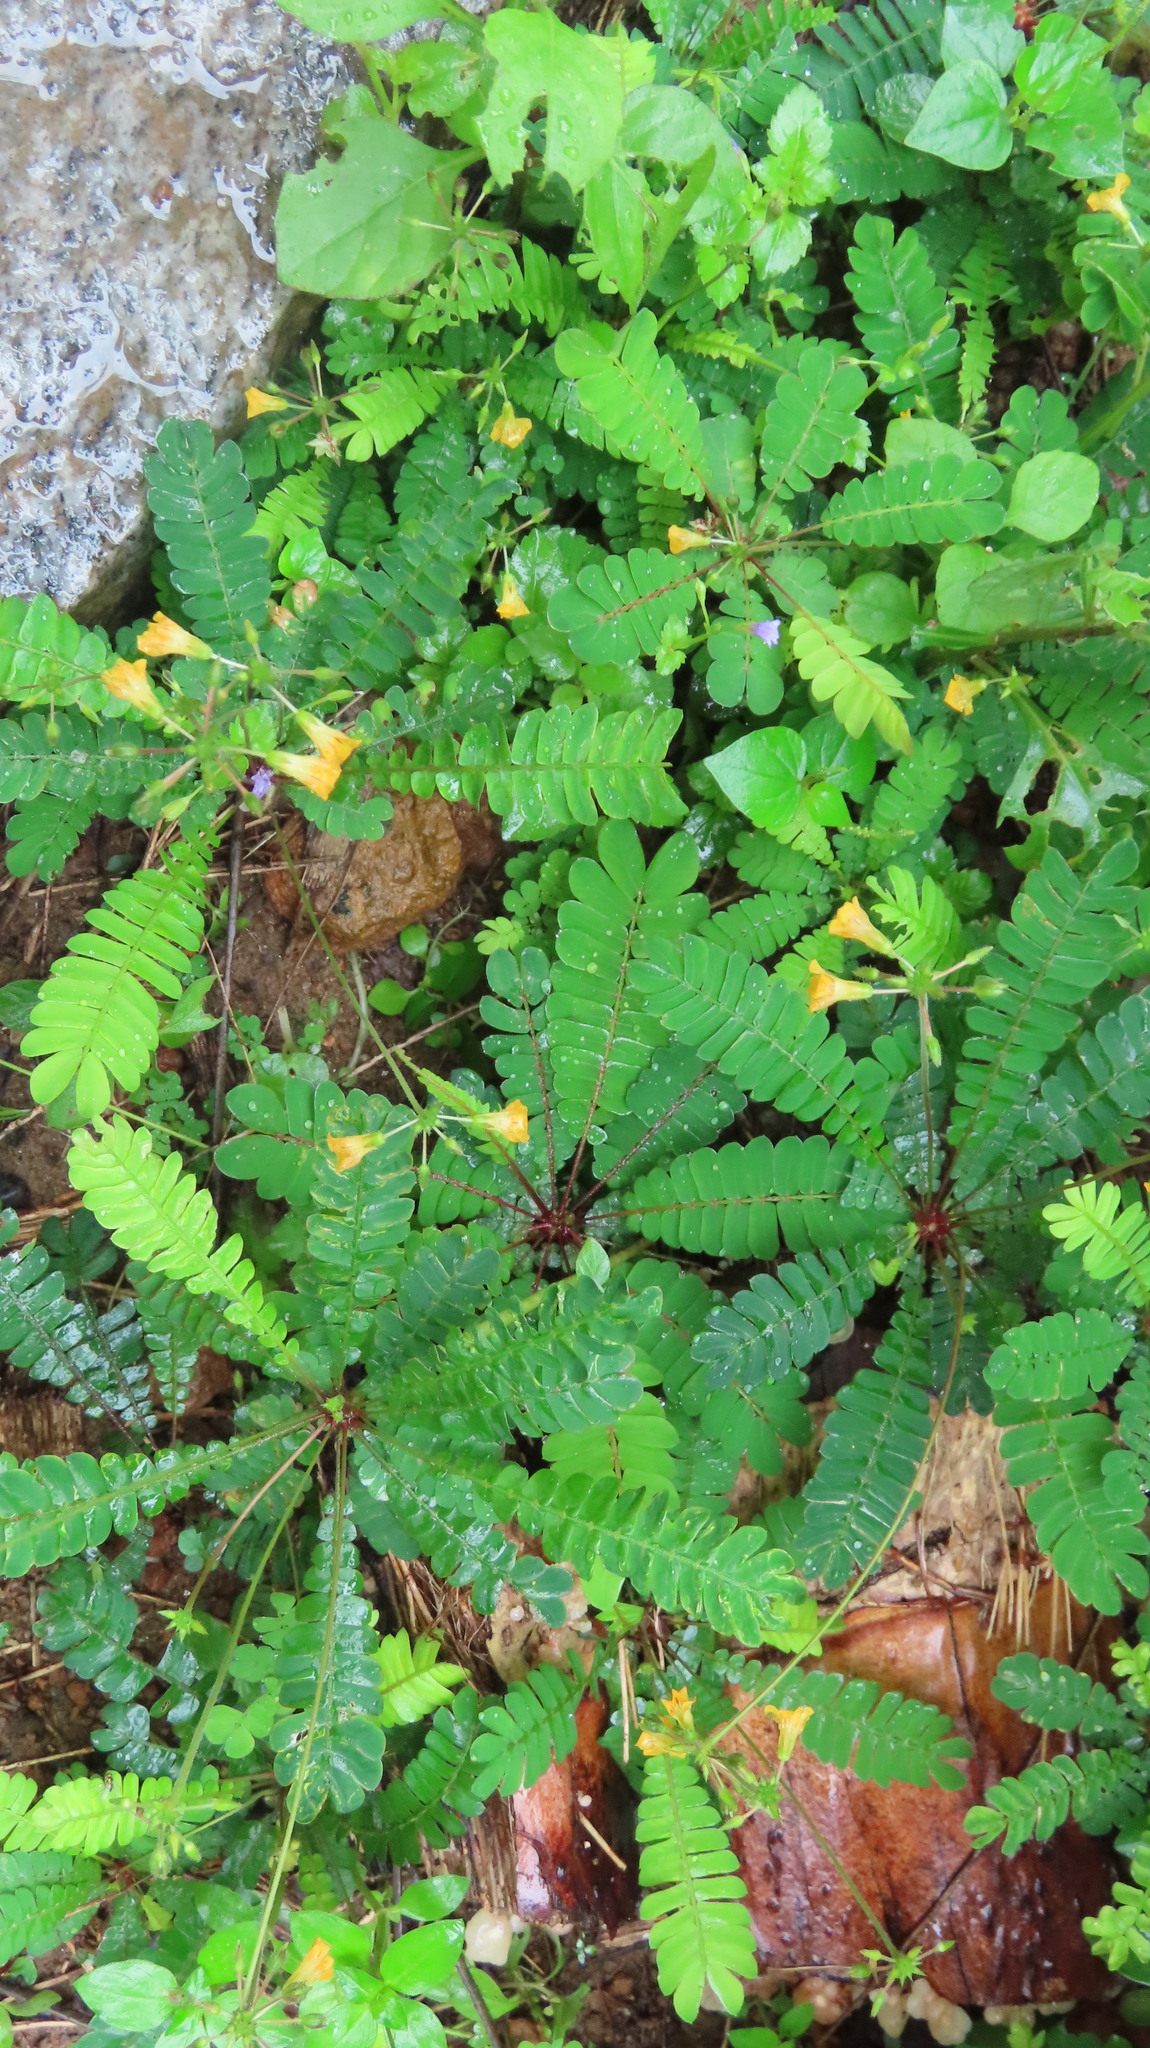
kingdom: Plantae
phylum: Tracheophyta
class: Magnoliopsida
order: Oxalidales
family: Oxalidaceae
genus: Biophytum
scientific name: Biophytum sensitivum
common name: Lifeplant
